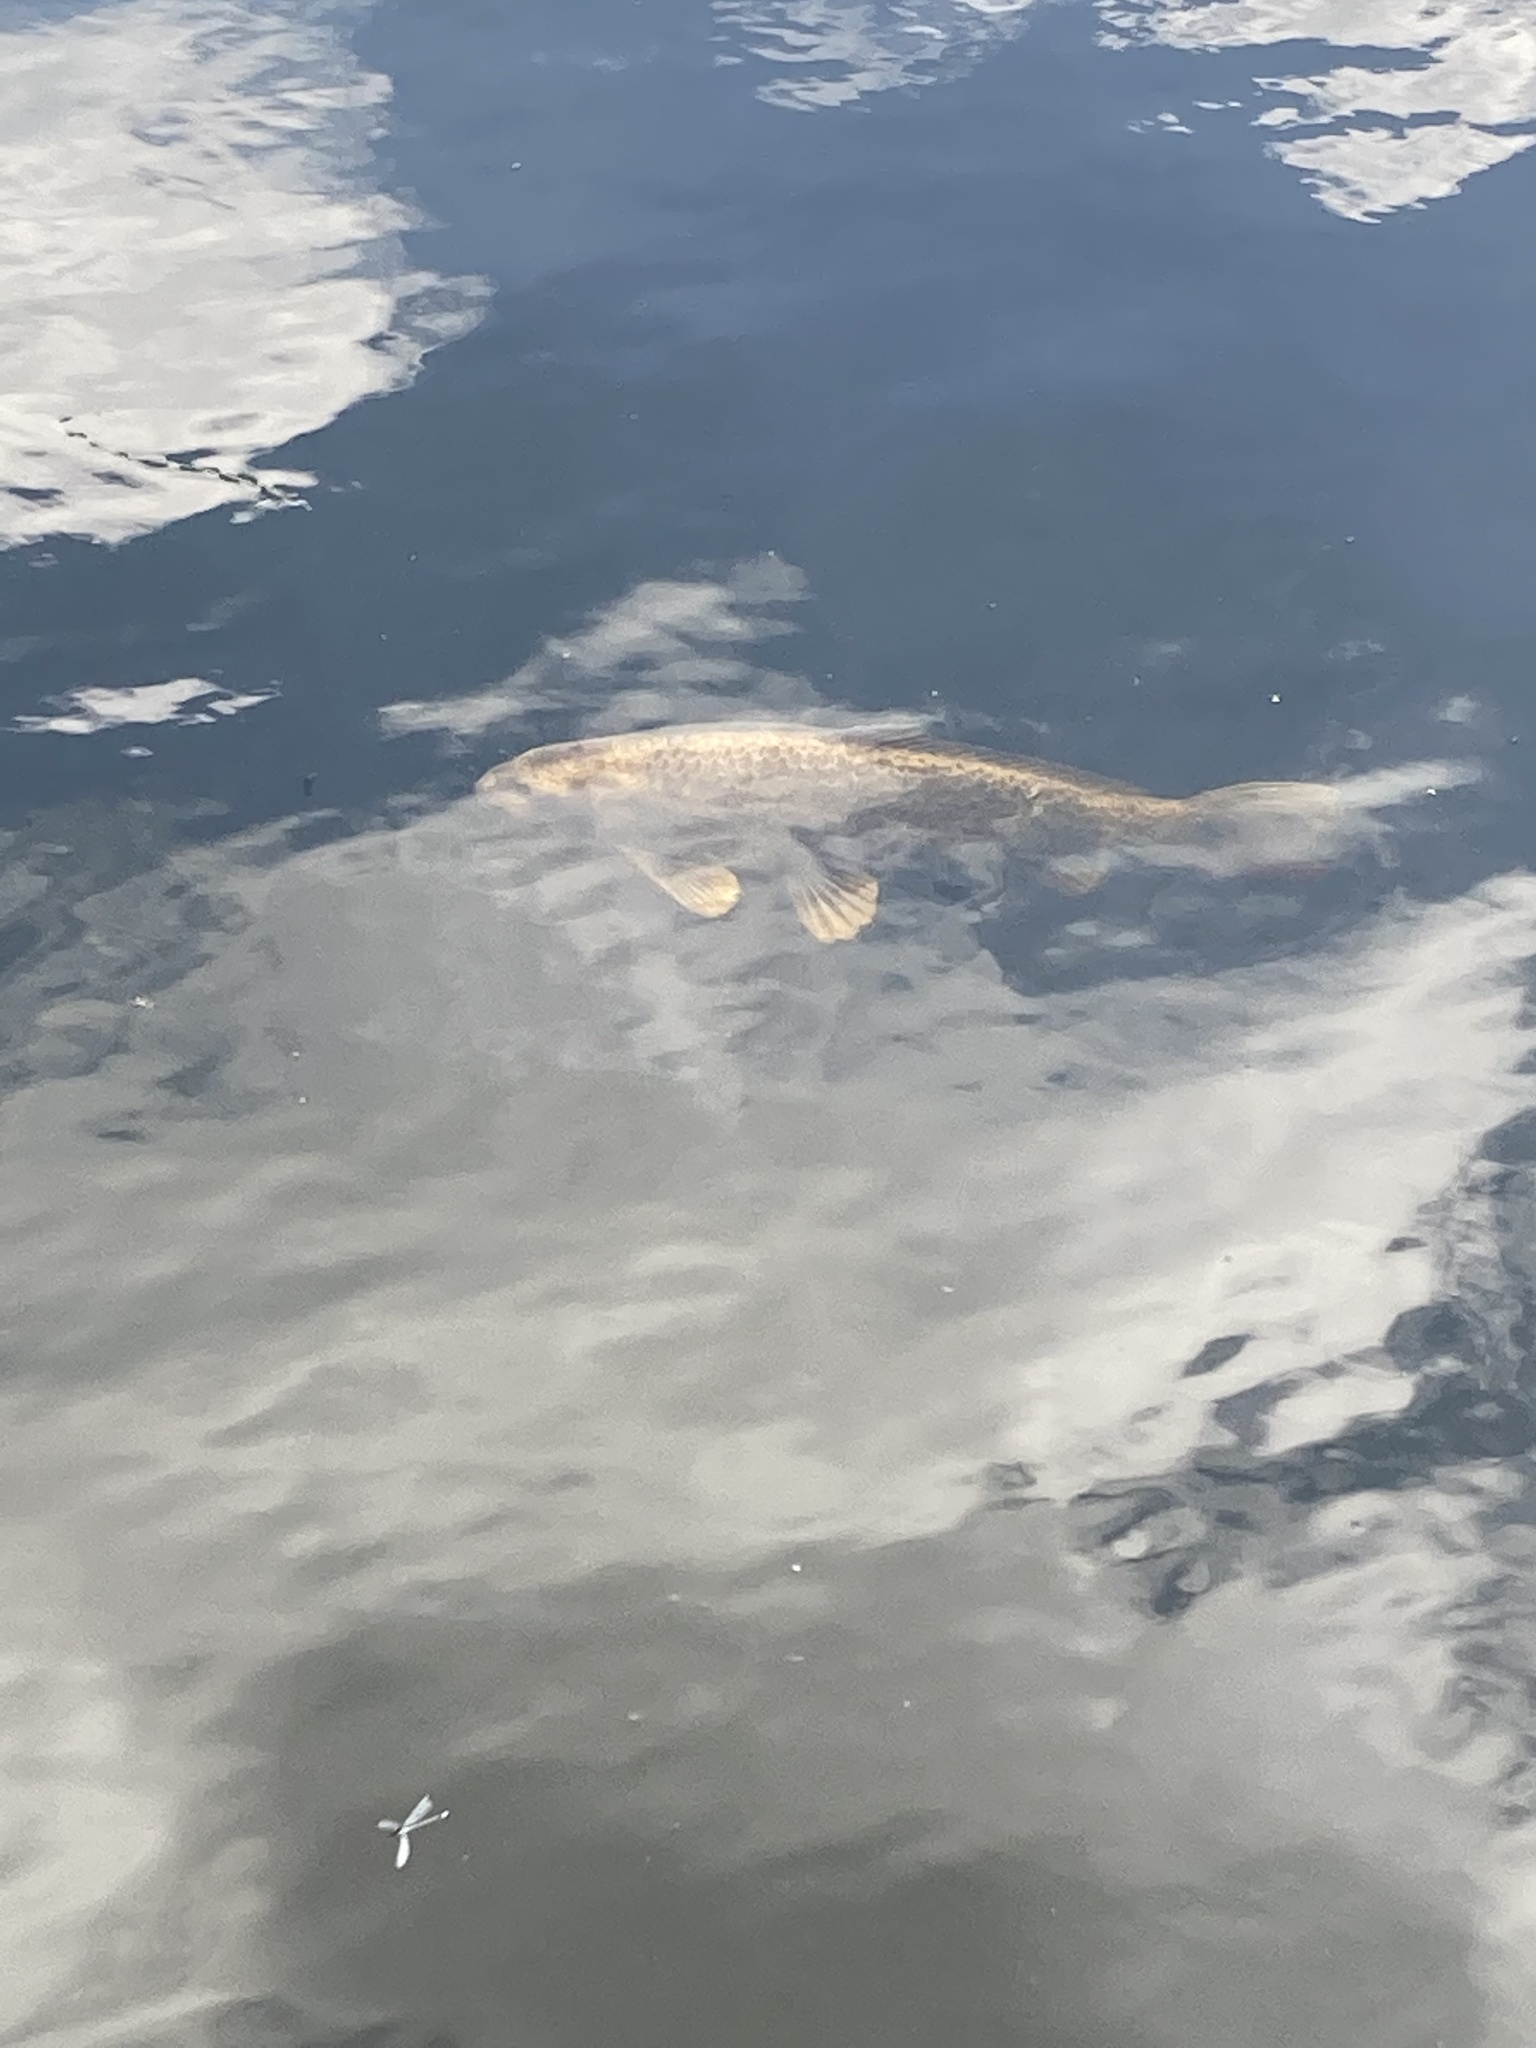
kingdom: Animalia
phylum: Chordata
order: Cypriniformes
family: Cyprinidae
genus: Cyprinus
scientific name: Cyprinus rubrofuscus
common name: Koi
